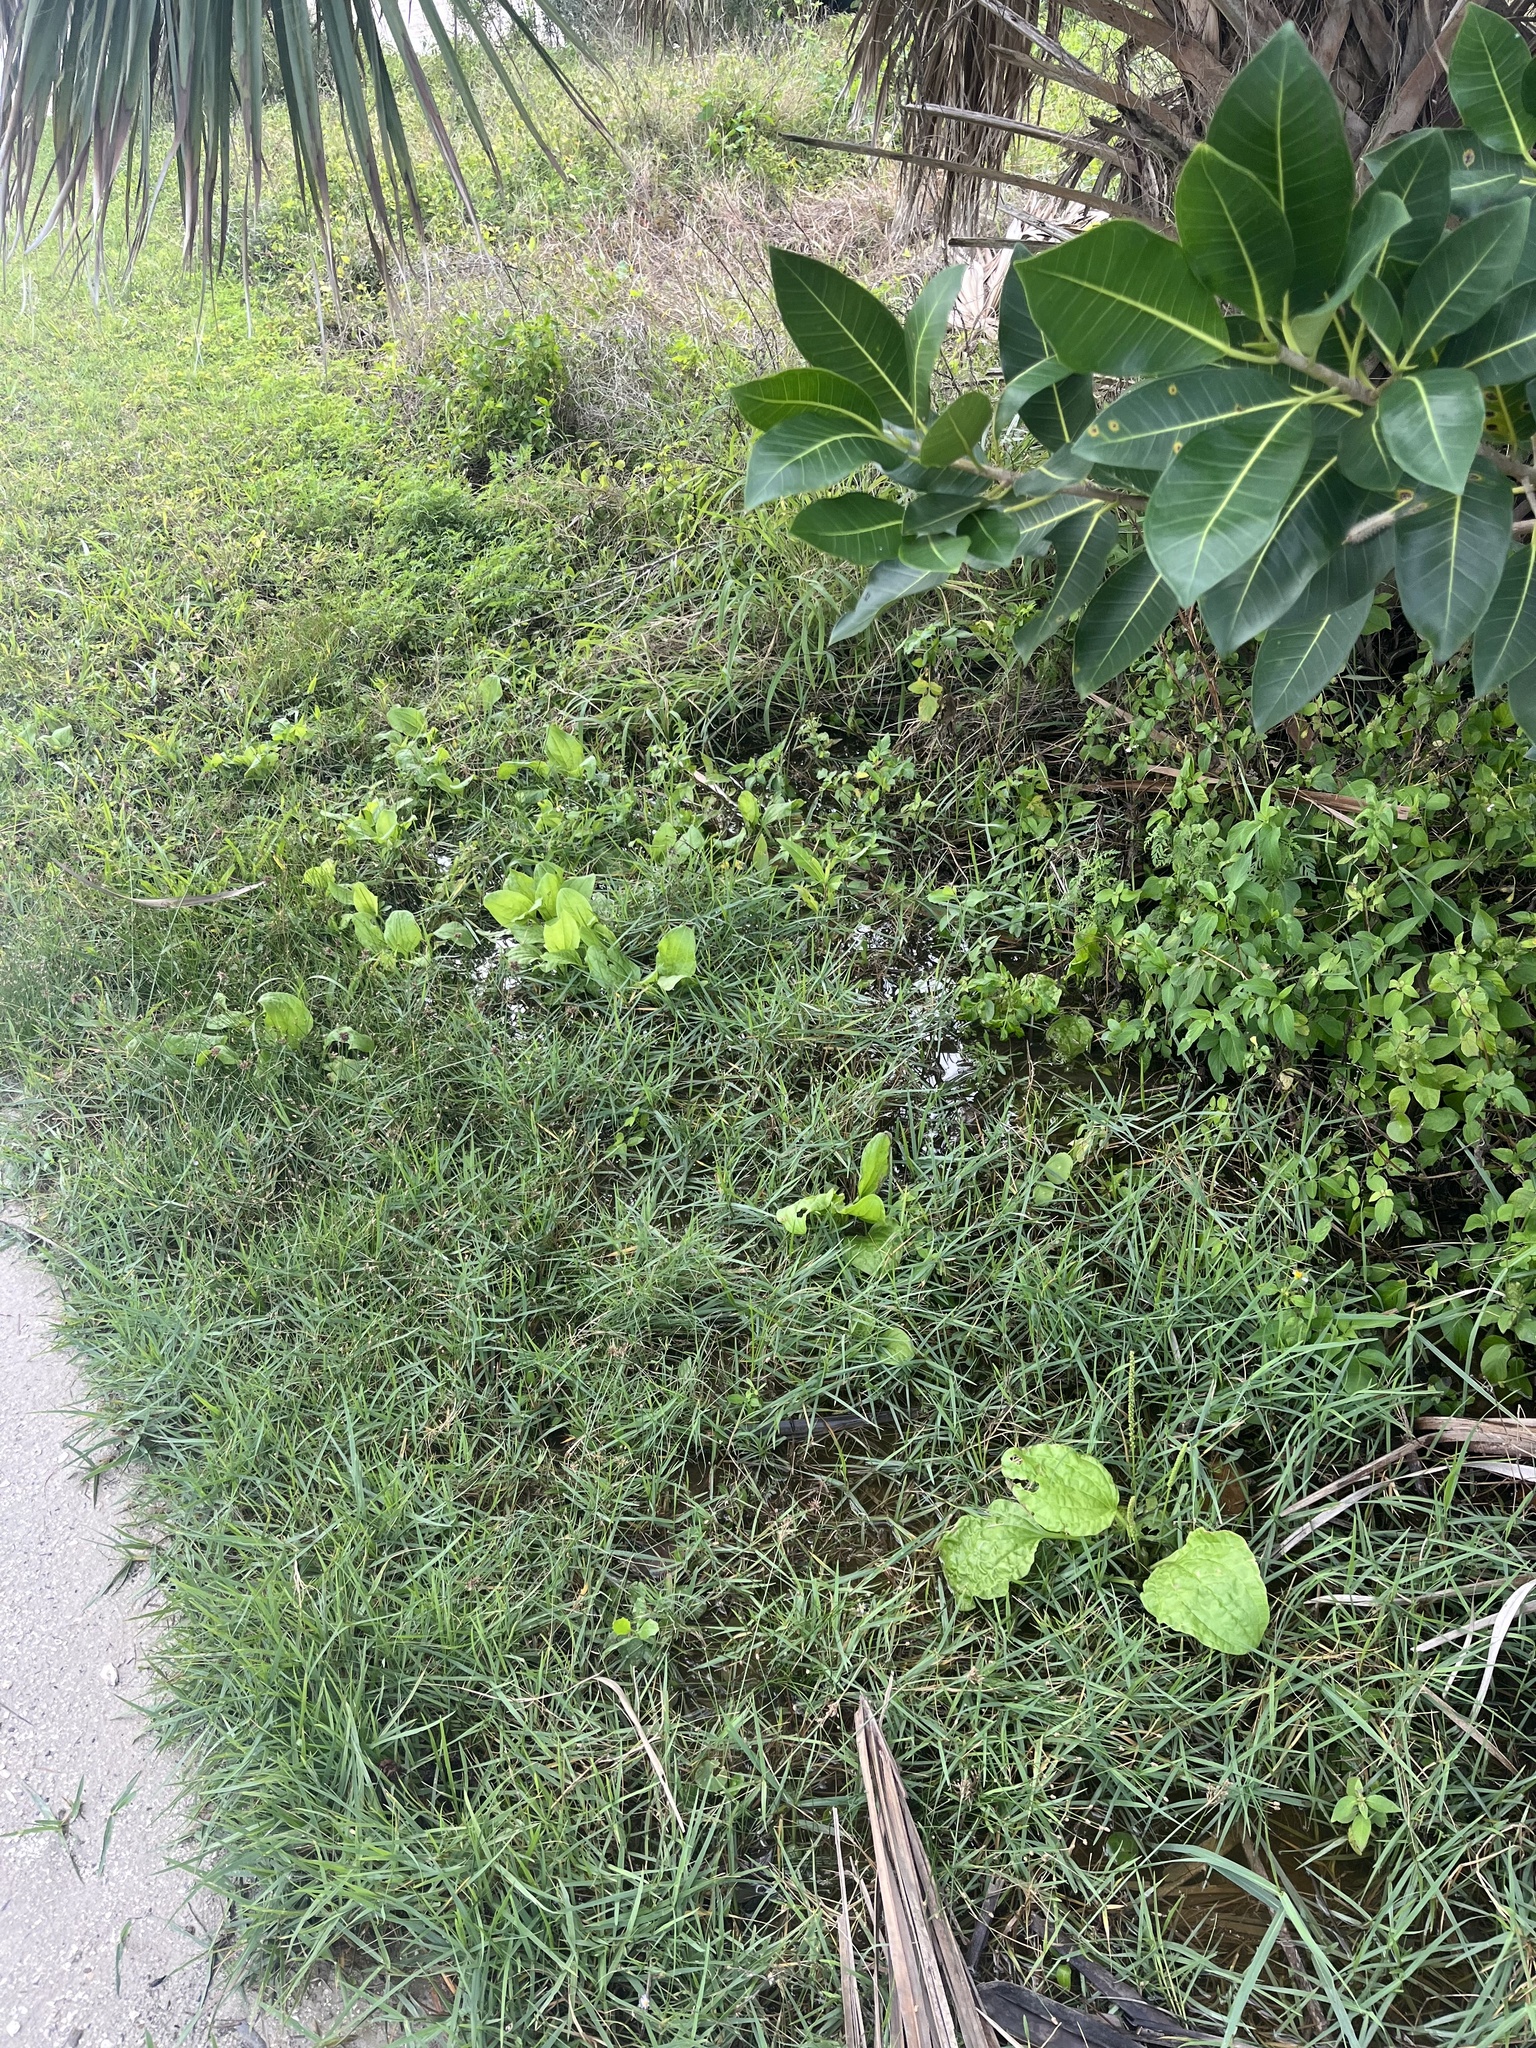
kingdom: Plantae
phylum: Tracheophyta
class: Magnoliopsida
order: Lamiales
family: Plantaginaceae
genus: Plantago
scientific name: Plantago major
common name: Common plantain
